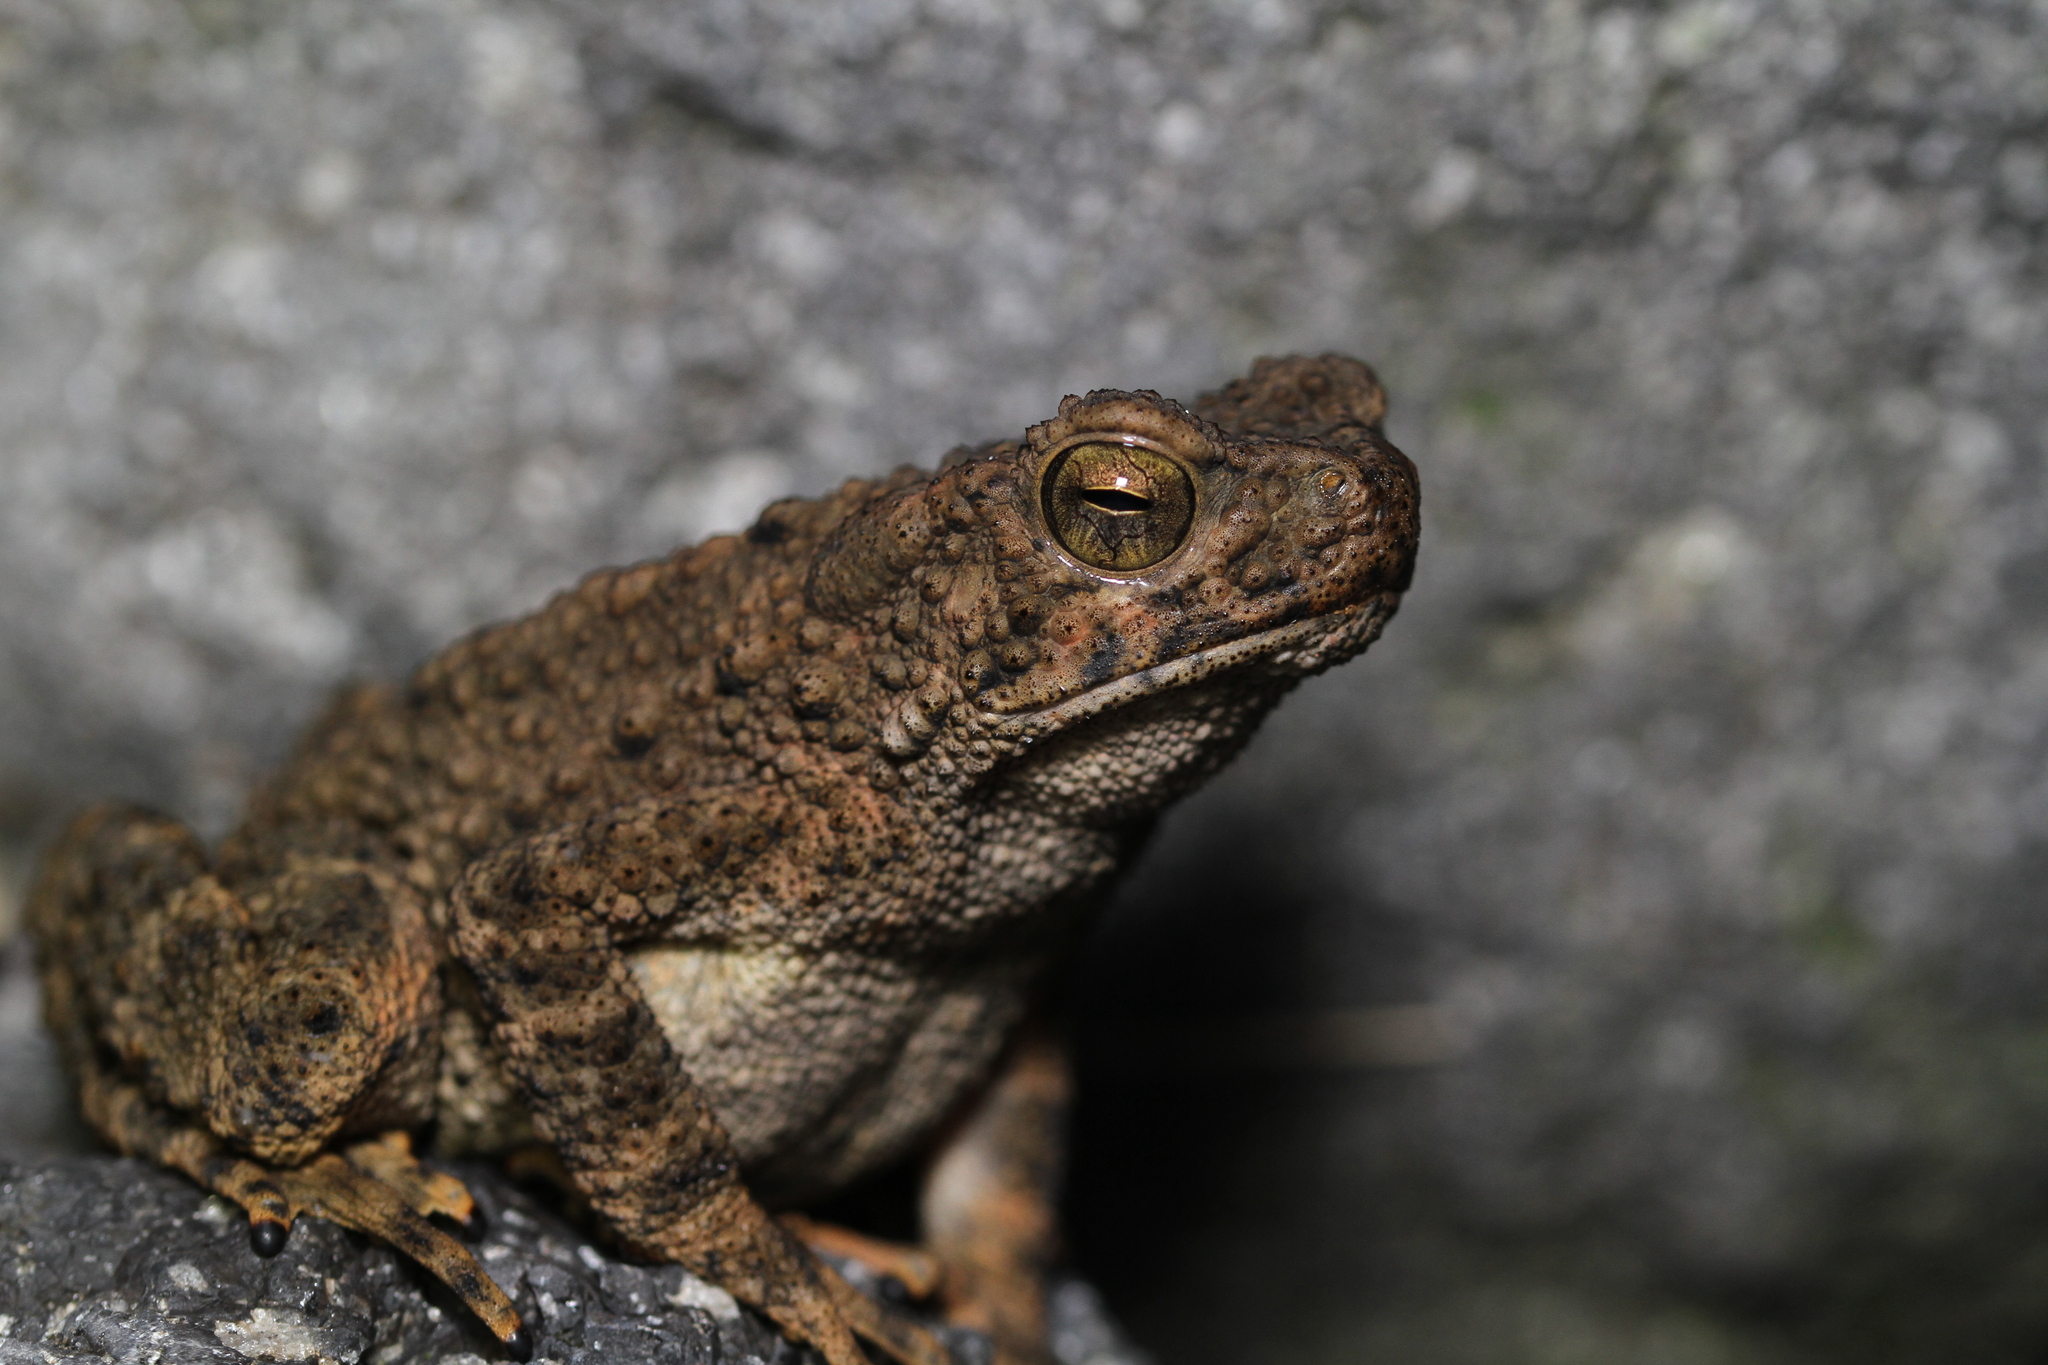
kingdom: Animalia
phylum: Chordata
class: Amphibia
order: Anura
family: Bufonidae
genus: Phrynoidis
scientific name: Phrynoidis asper
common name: Asian giant toad
